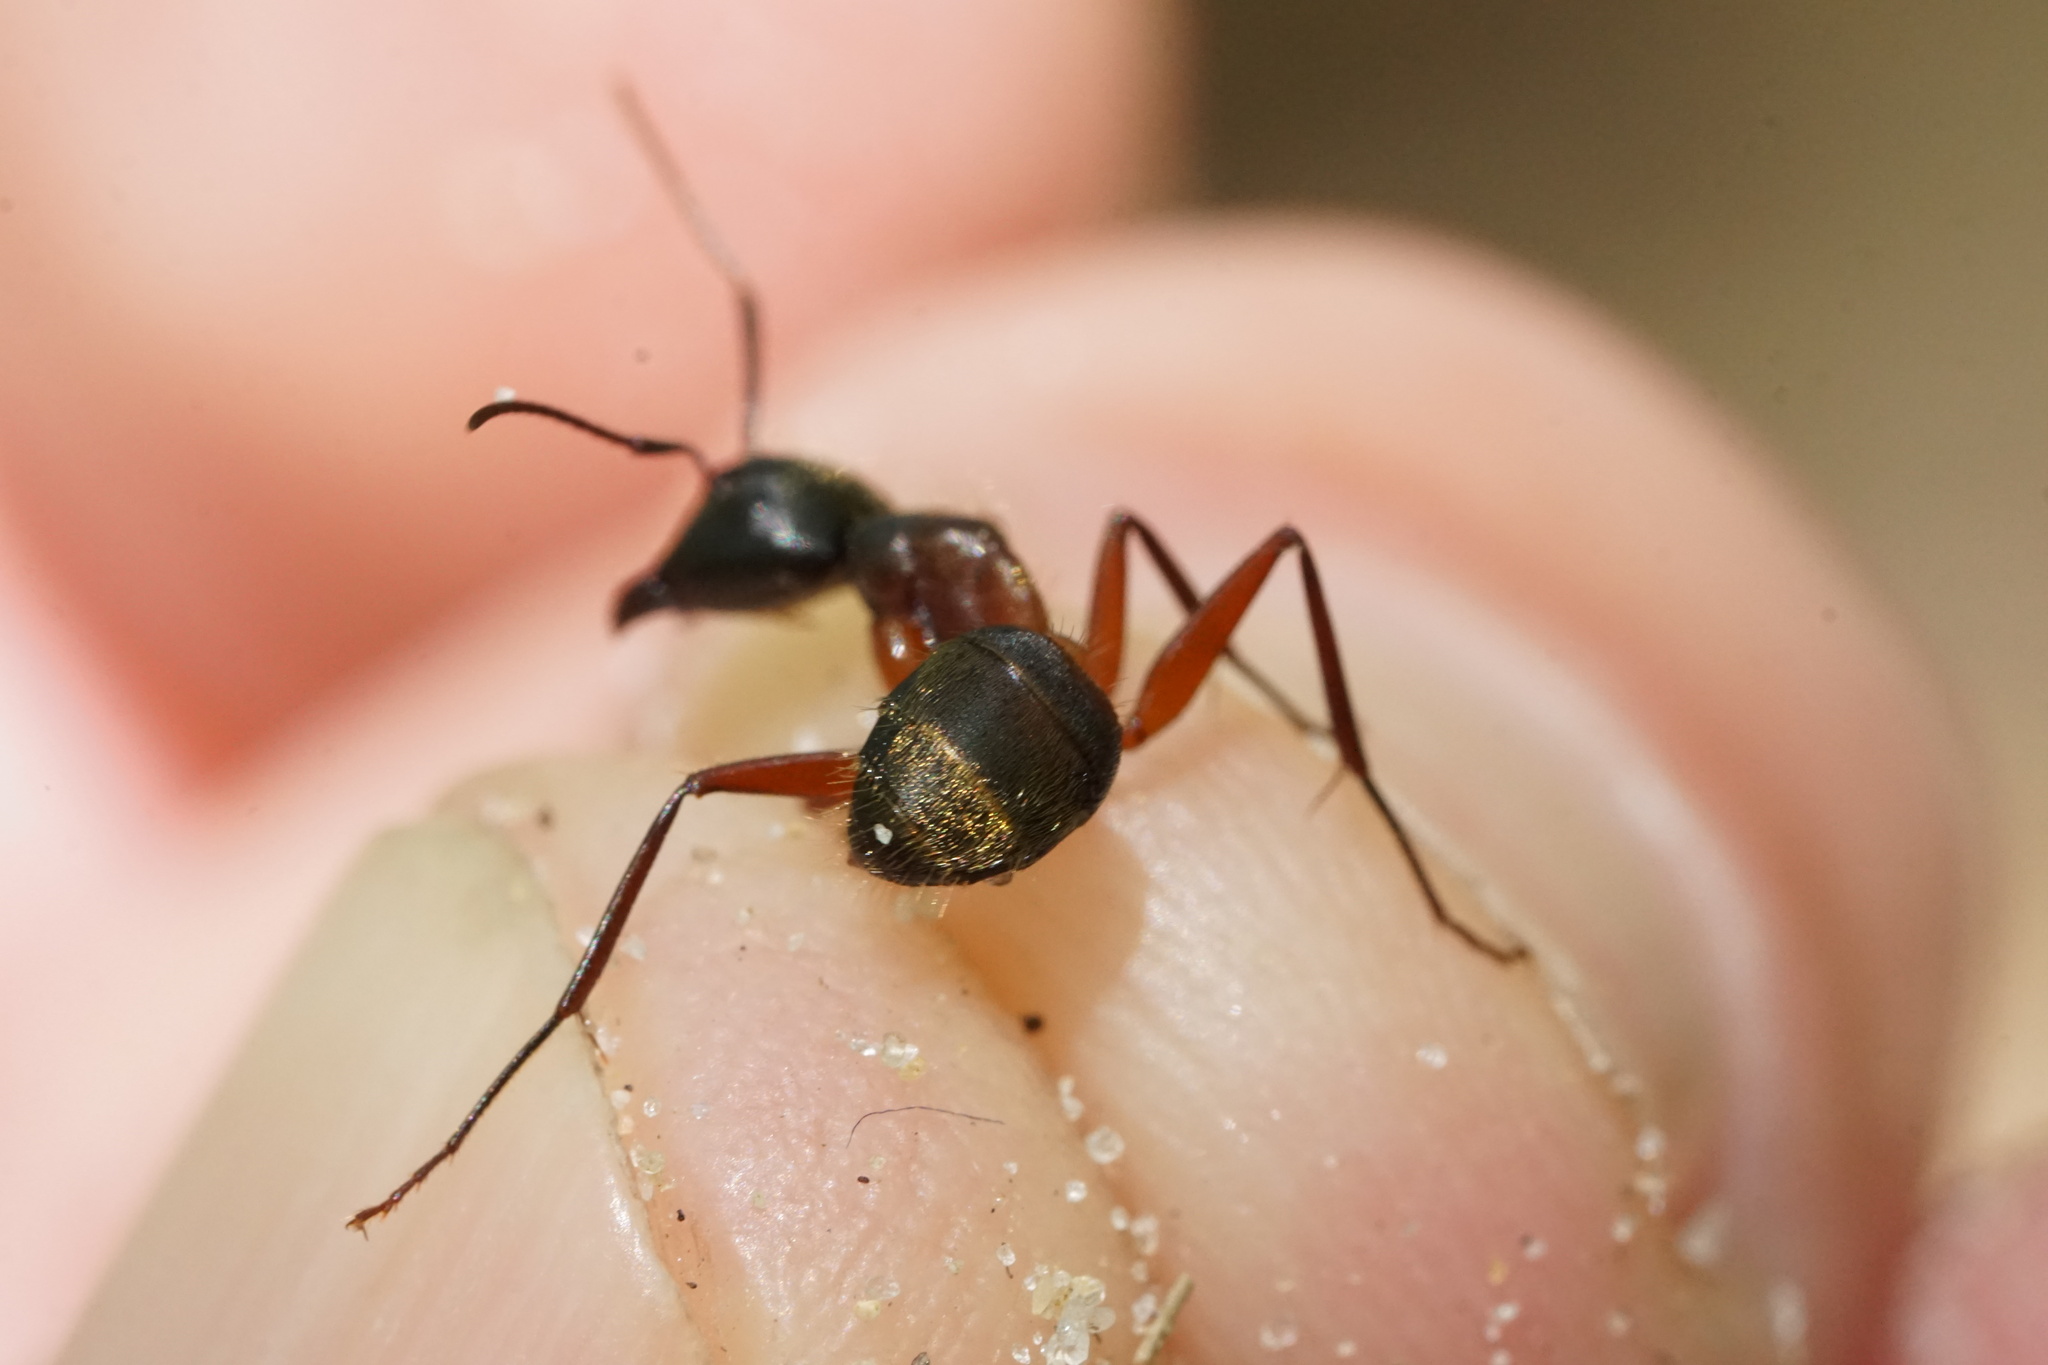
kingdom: Animalia
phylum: Arthropoda
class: Insecta
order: Hymenoptera
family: Formicidae
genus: Camponotus
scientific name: Camponotus chromaiodes
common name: Red carpenter ant
